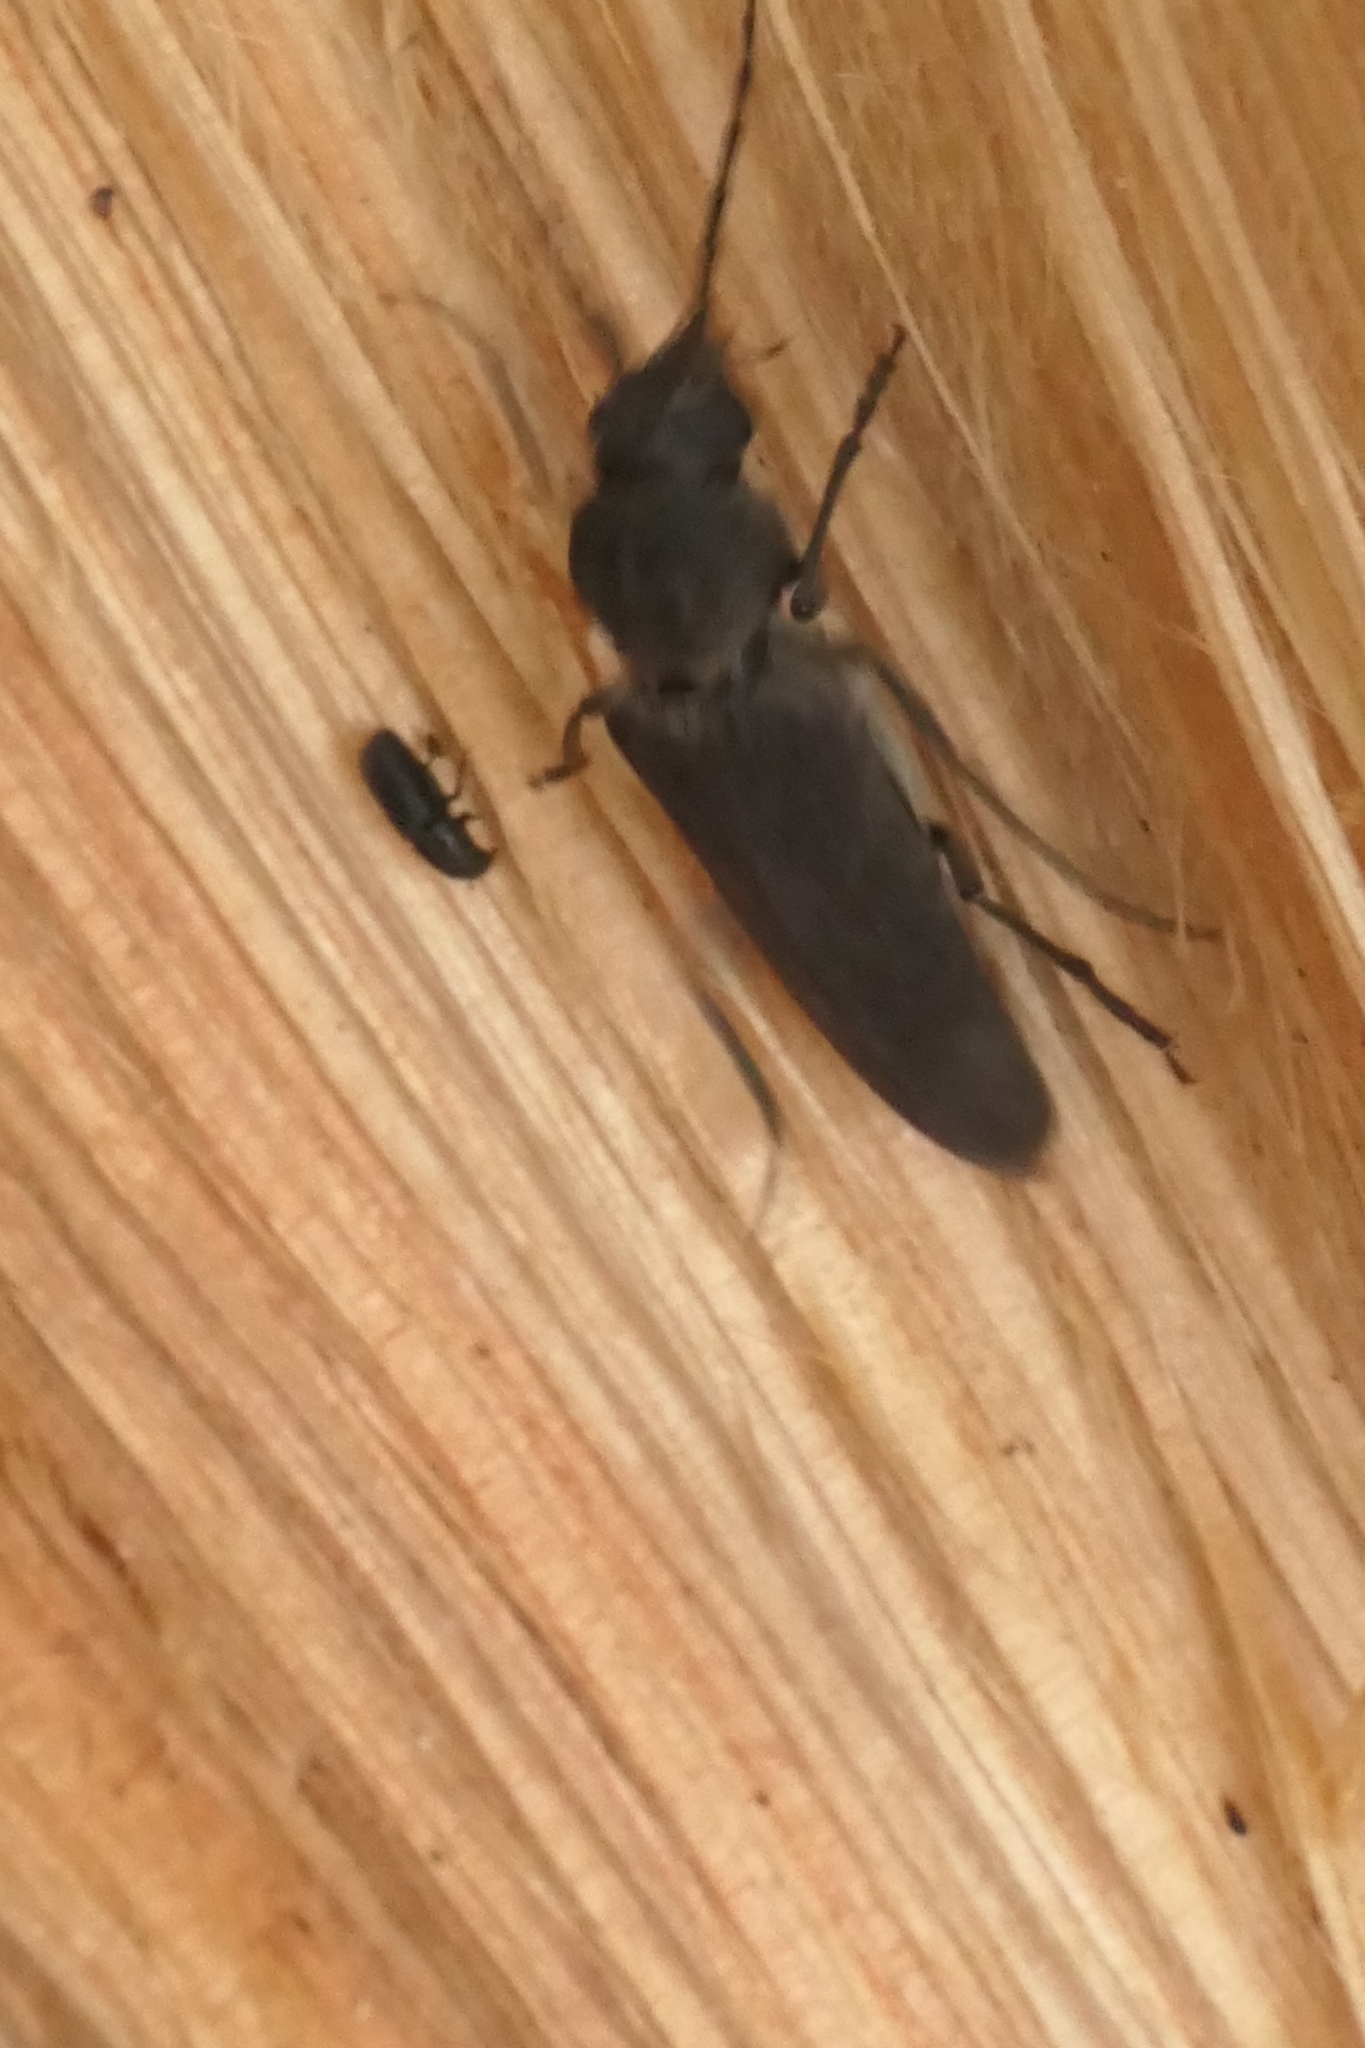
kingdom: Animalia
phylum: Arthropoda
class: Insecta
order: Coleoptera
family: Curculionidae
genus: Hylurgus
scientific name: Hylurgus ligniperda
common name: Goldenhaired bark beetle
